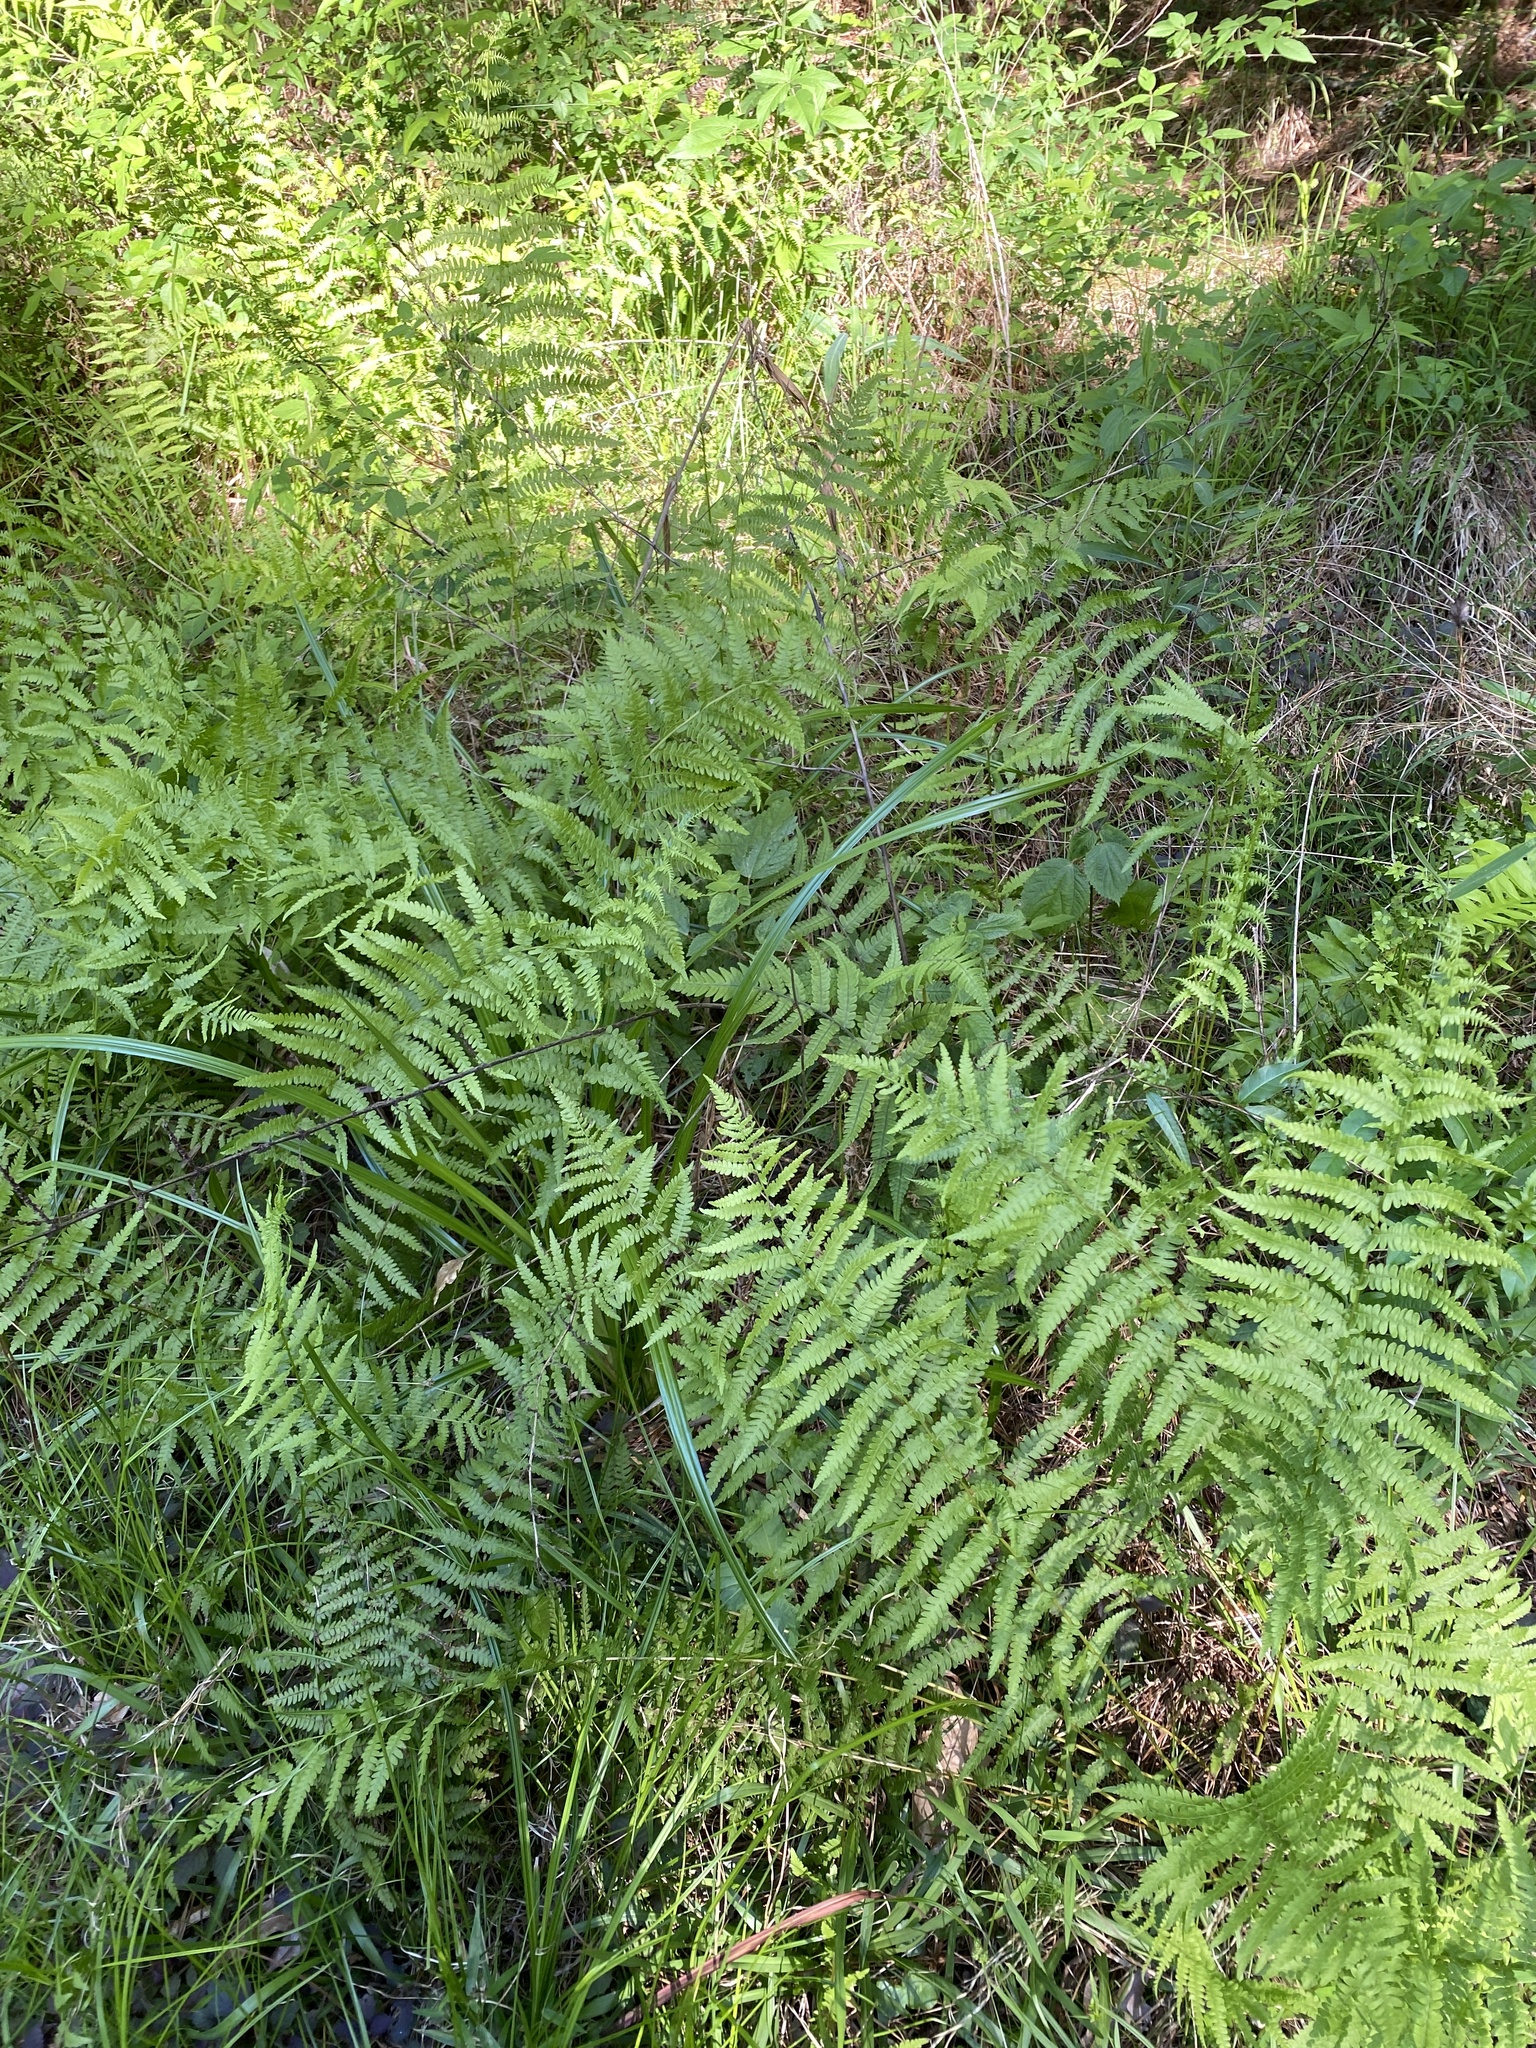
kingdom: Plantae
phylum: Tracheophyta
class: Polypodiopsida
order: Polypodiales
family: Thelypteridaceae
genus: Thelypteris
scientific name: Thelypteris palustris
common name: Marsh fern
